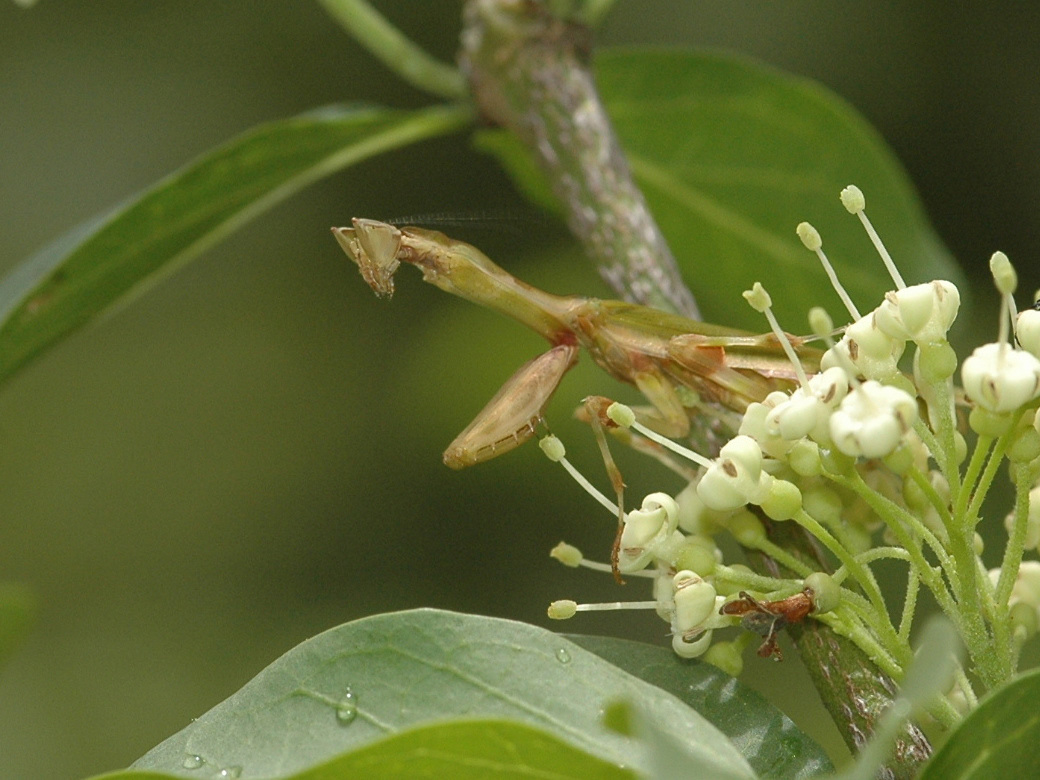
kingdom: Animalia
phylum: Arthropoda
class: Insecta
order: Mantodea
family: Galinthiadidae
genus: Galinthias
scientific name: Galinthias amoena
